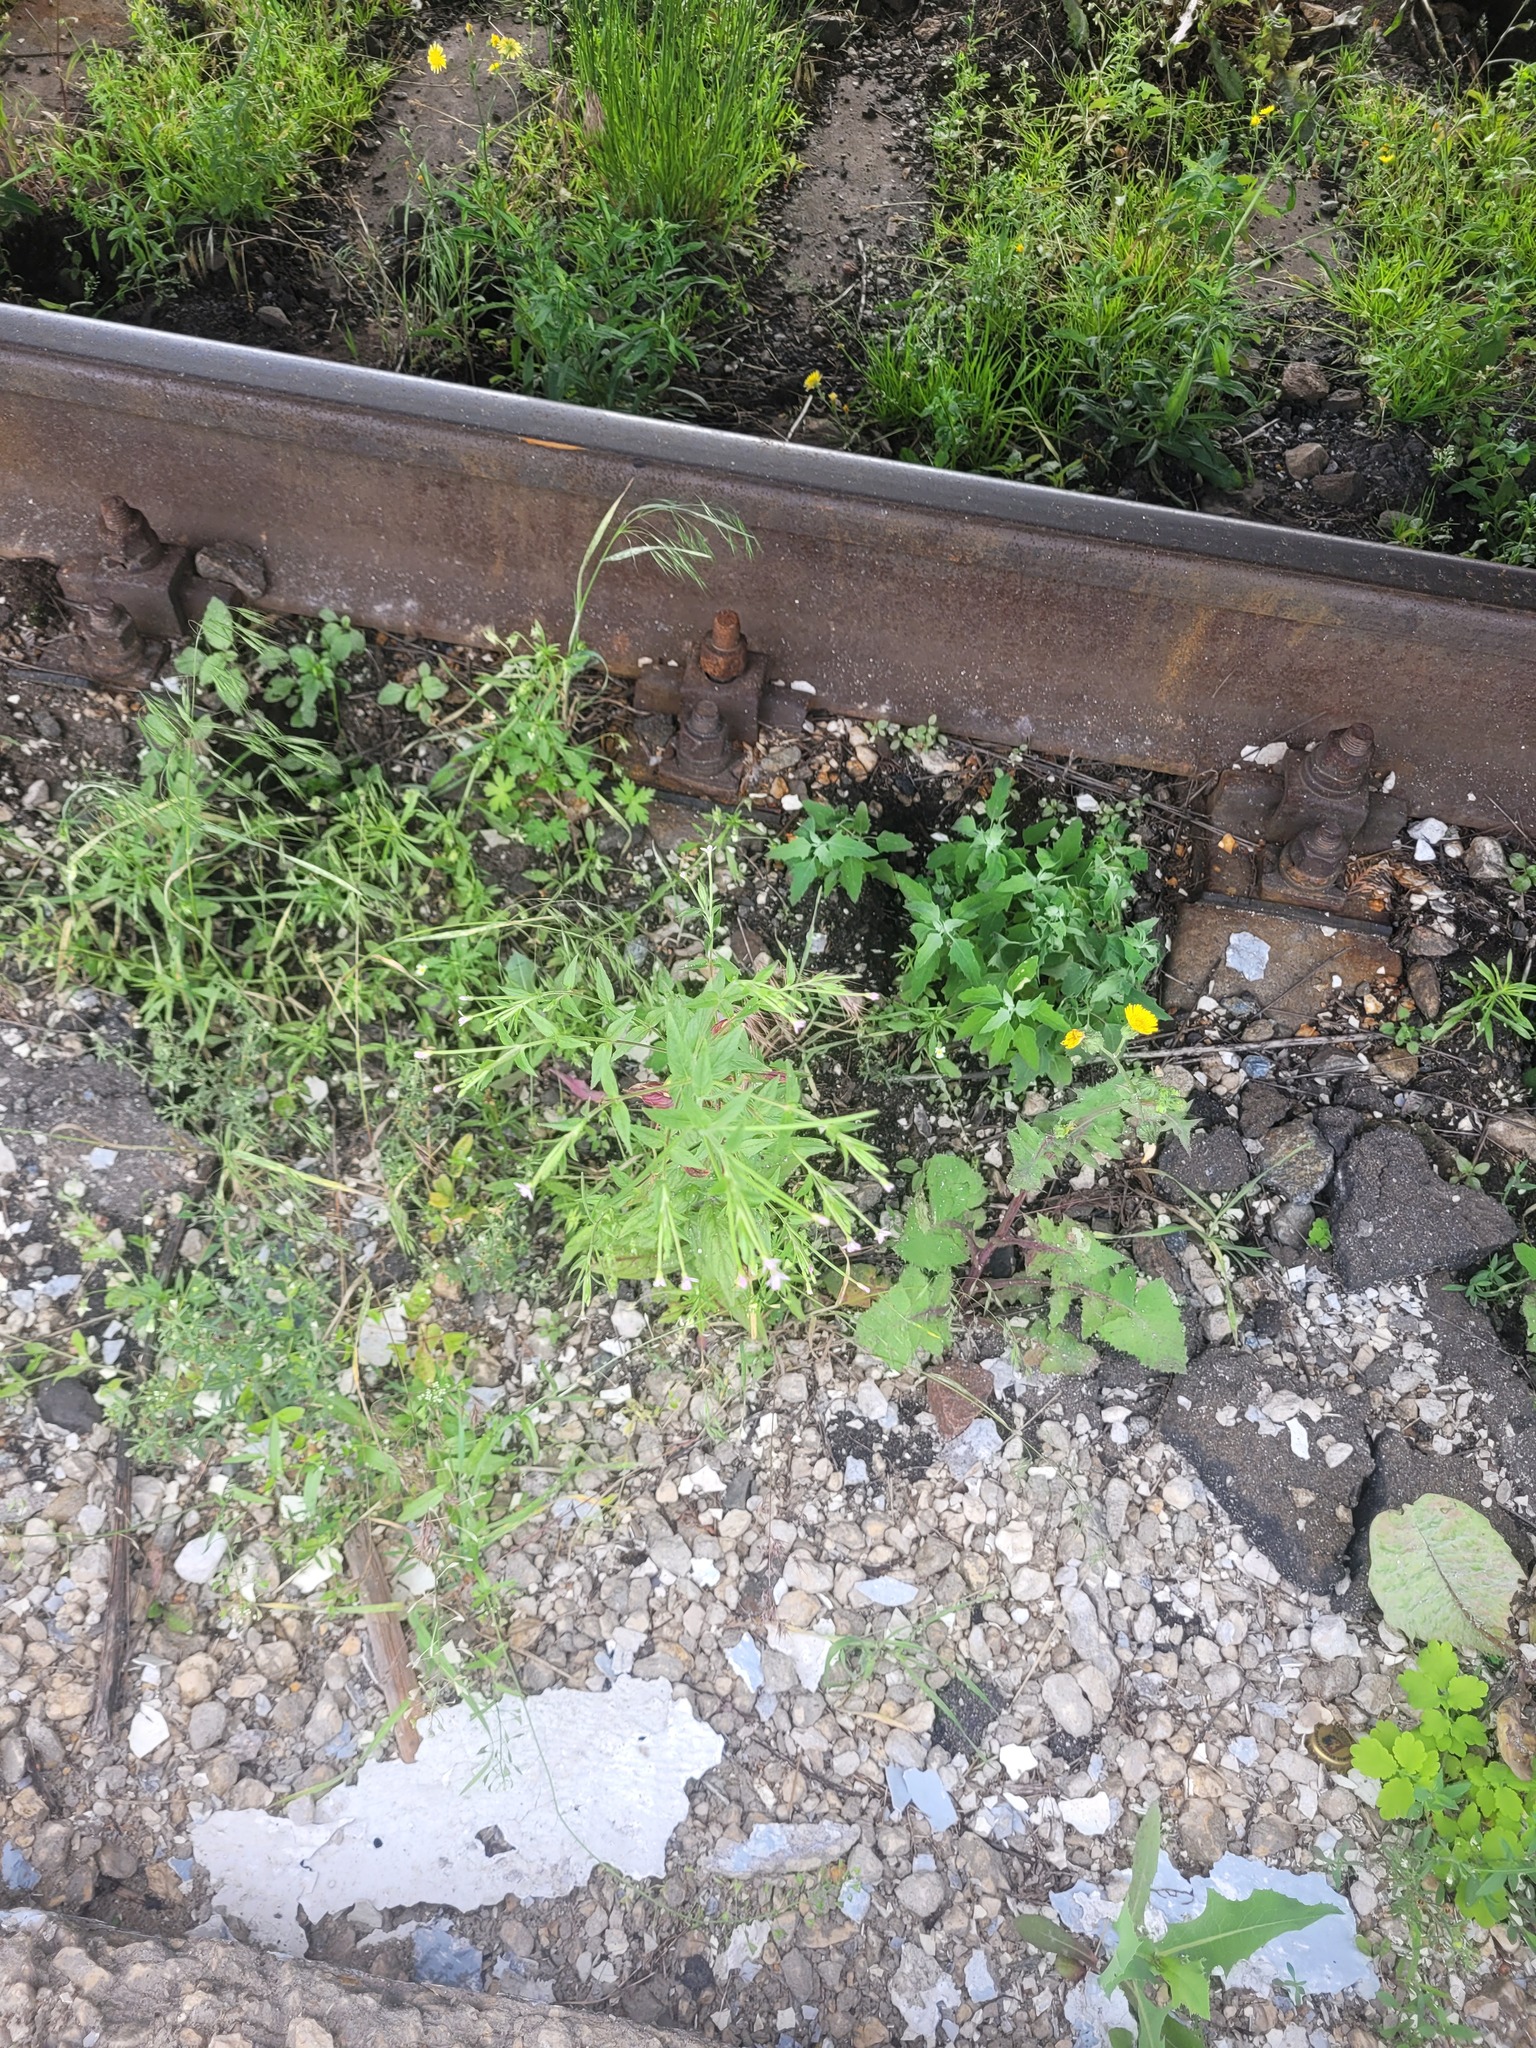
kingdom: Plantae
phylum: Tracheophyta
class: Magnoliopsida
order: Myrtales
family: Onagraceae
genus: Epilobium
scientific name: Epilobium ciliatum
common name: American willowherb
